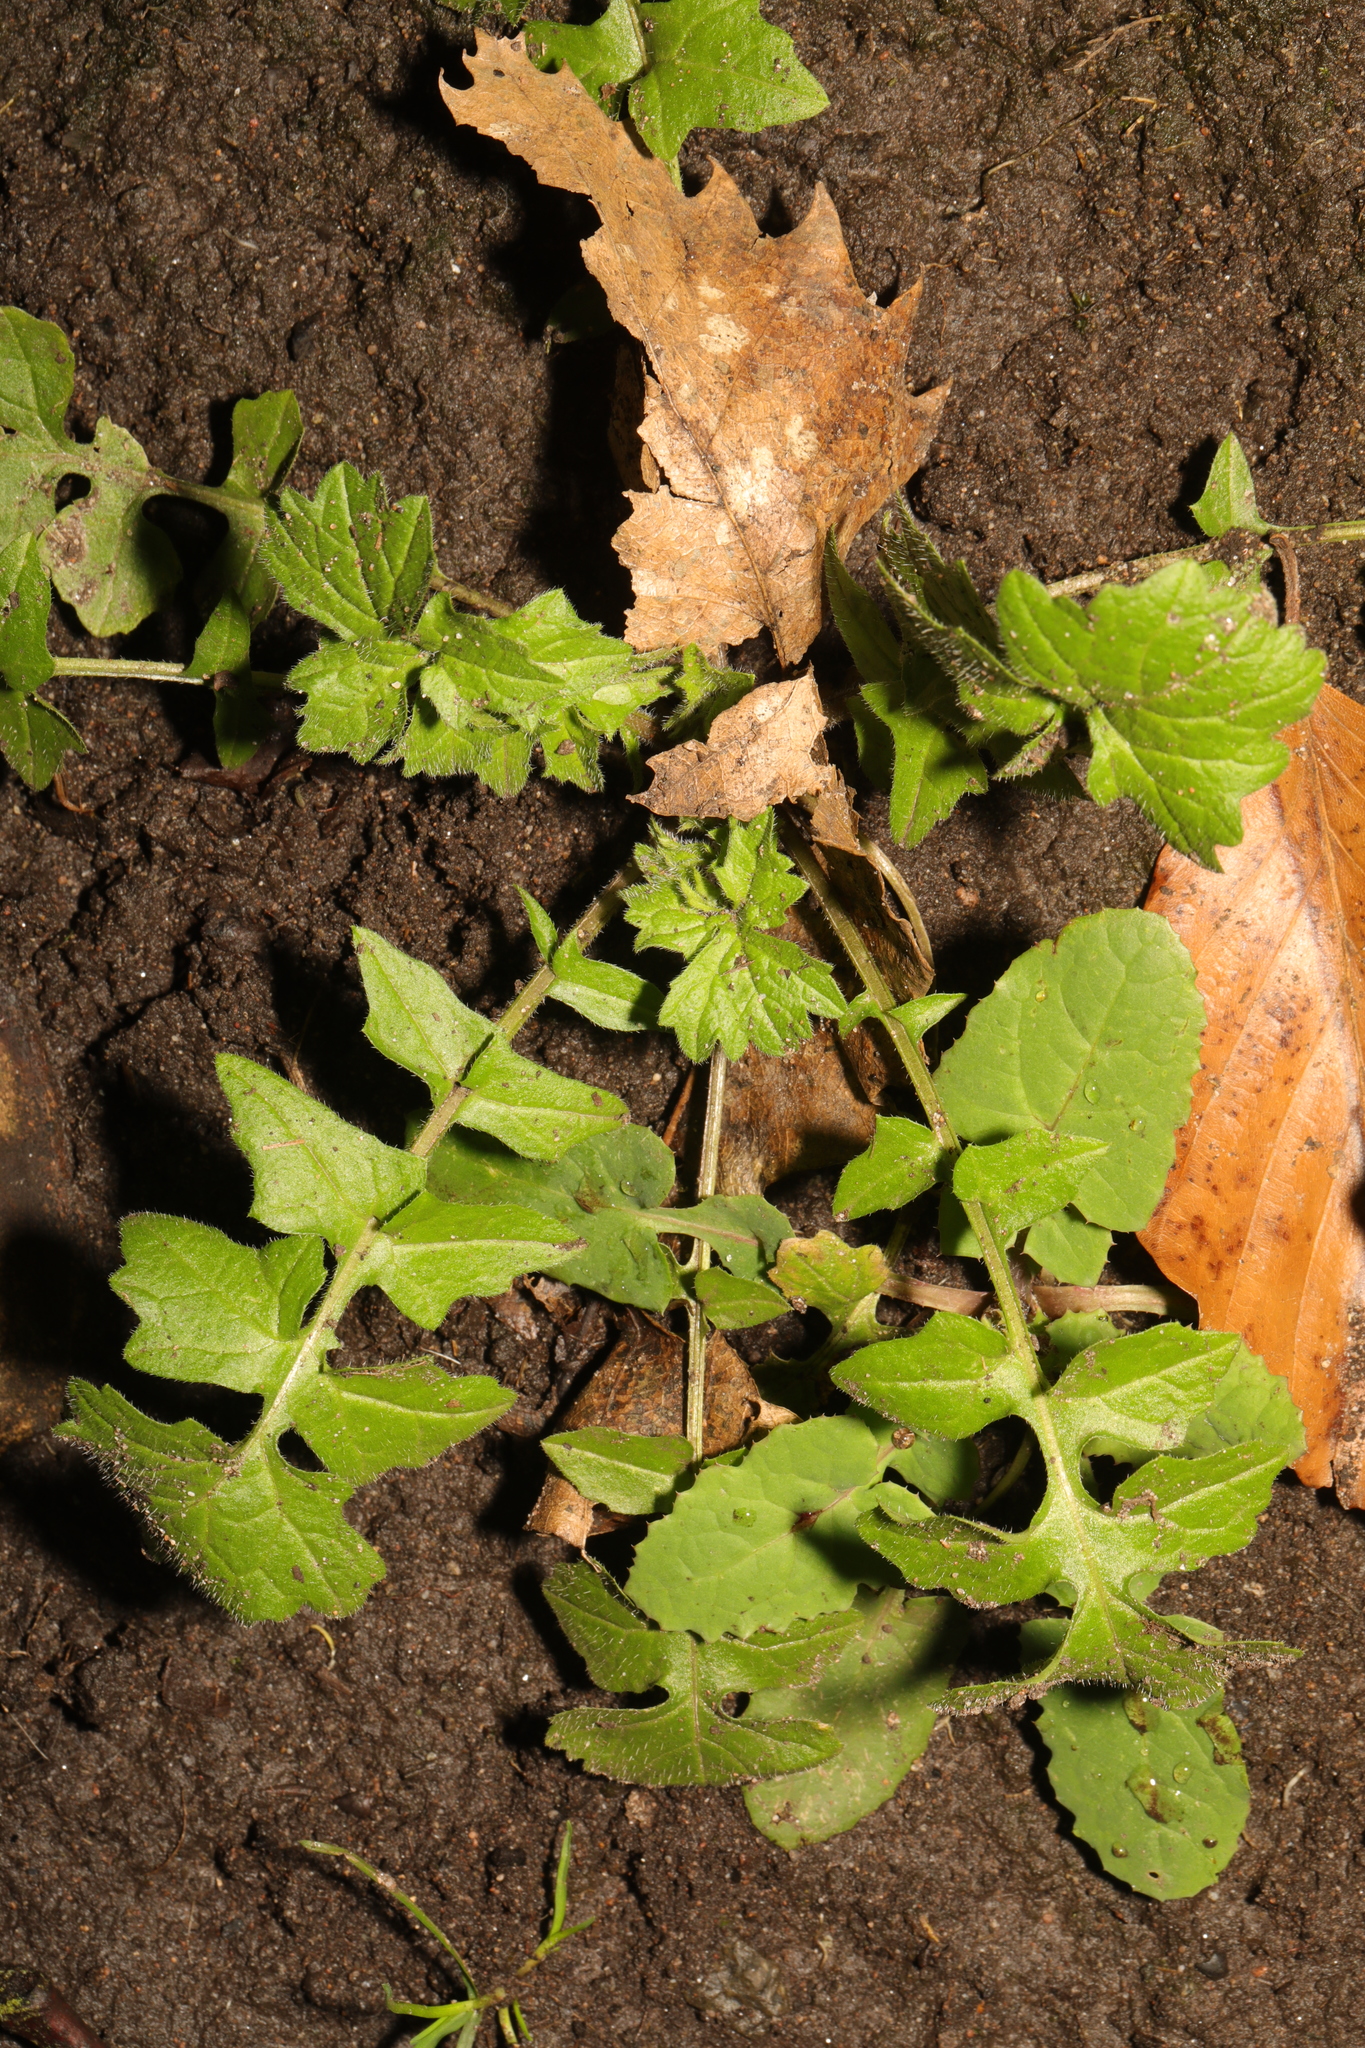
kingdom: Plantae
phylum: Tracheophyta
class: Magnoliopsida
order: Asterales
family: Asteraceae
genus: Sonchus
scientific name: Sonchus oleraceus
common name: Common sowthistle
